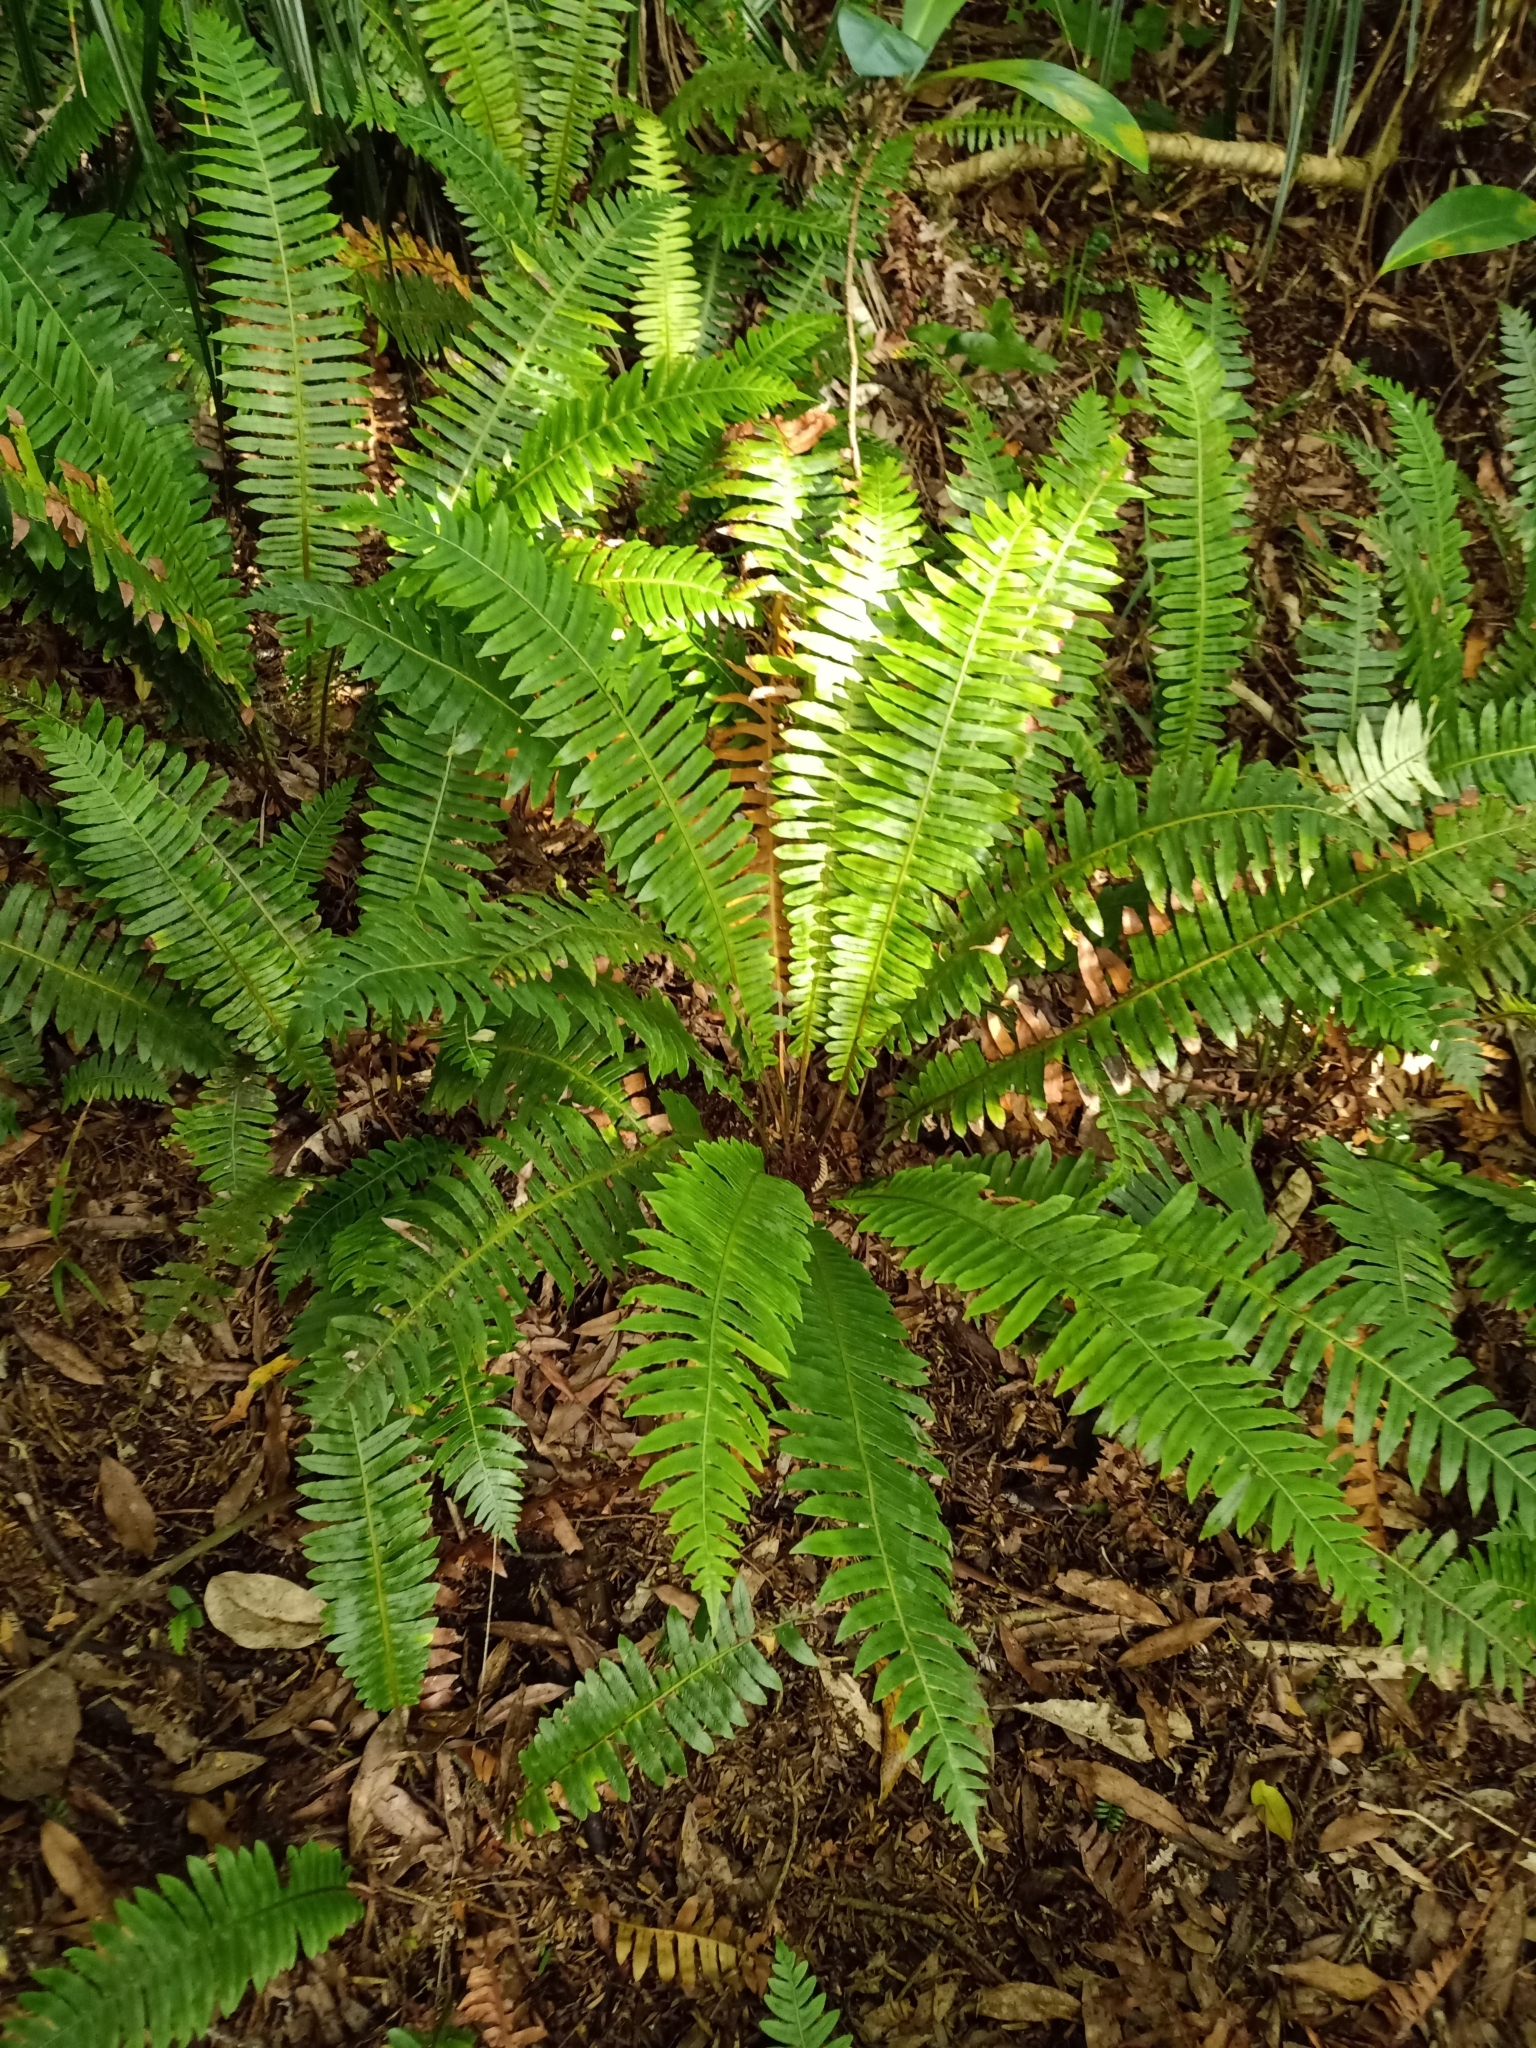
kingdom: Plantae
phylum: Tracheophyta
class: Polypodiopsida
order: Polypodiales
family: Blechnaceae
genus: Lomaria
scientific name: Lomaria discolor
